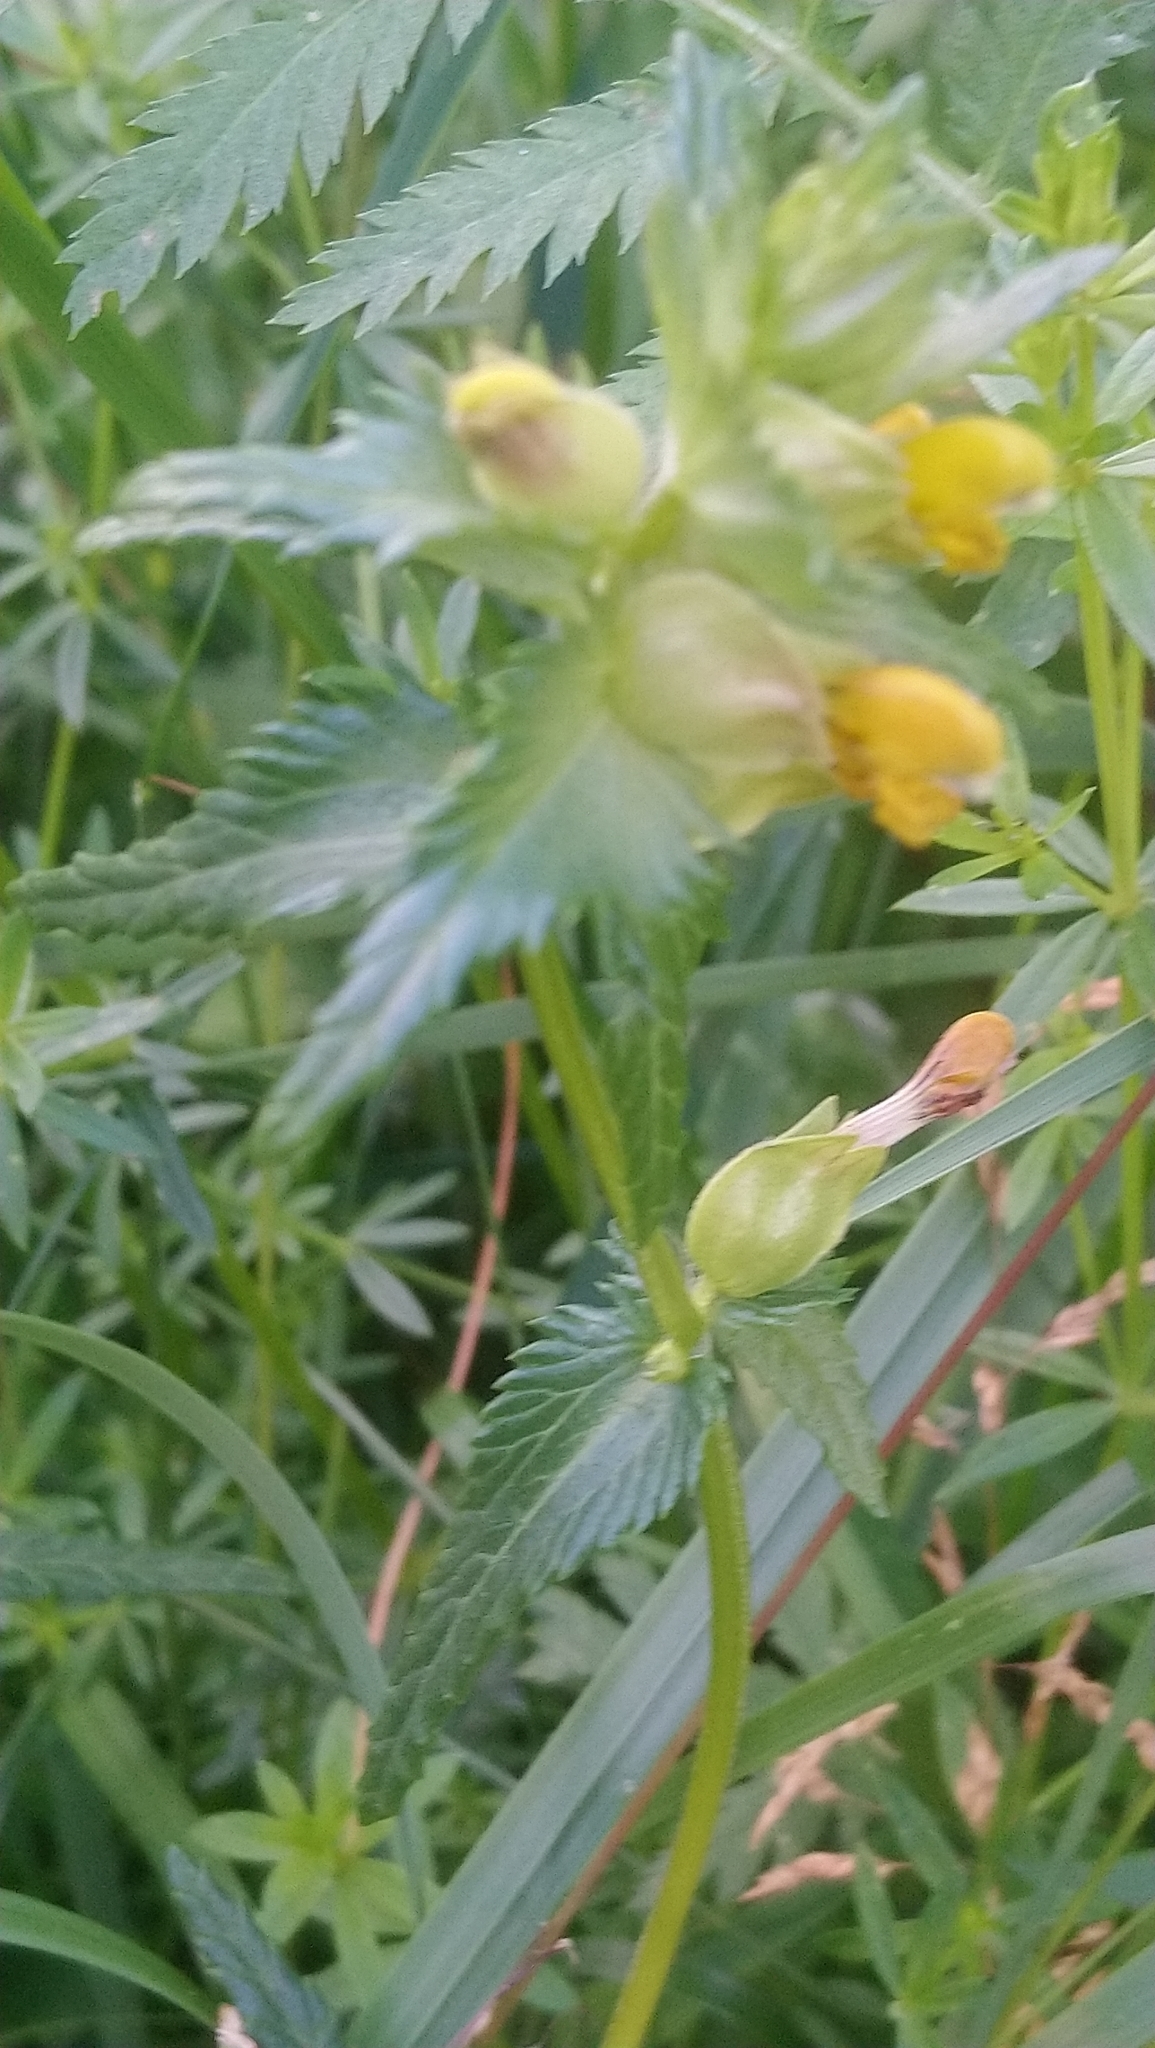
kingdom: Plantae
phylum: Tracheophyta
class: Magnoliopsida
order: Lamiales
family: Orobanchaceae
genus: Rhinanthus
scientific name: Rhinanthus minor
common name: Yellow-rattle
